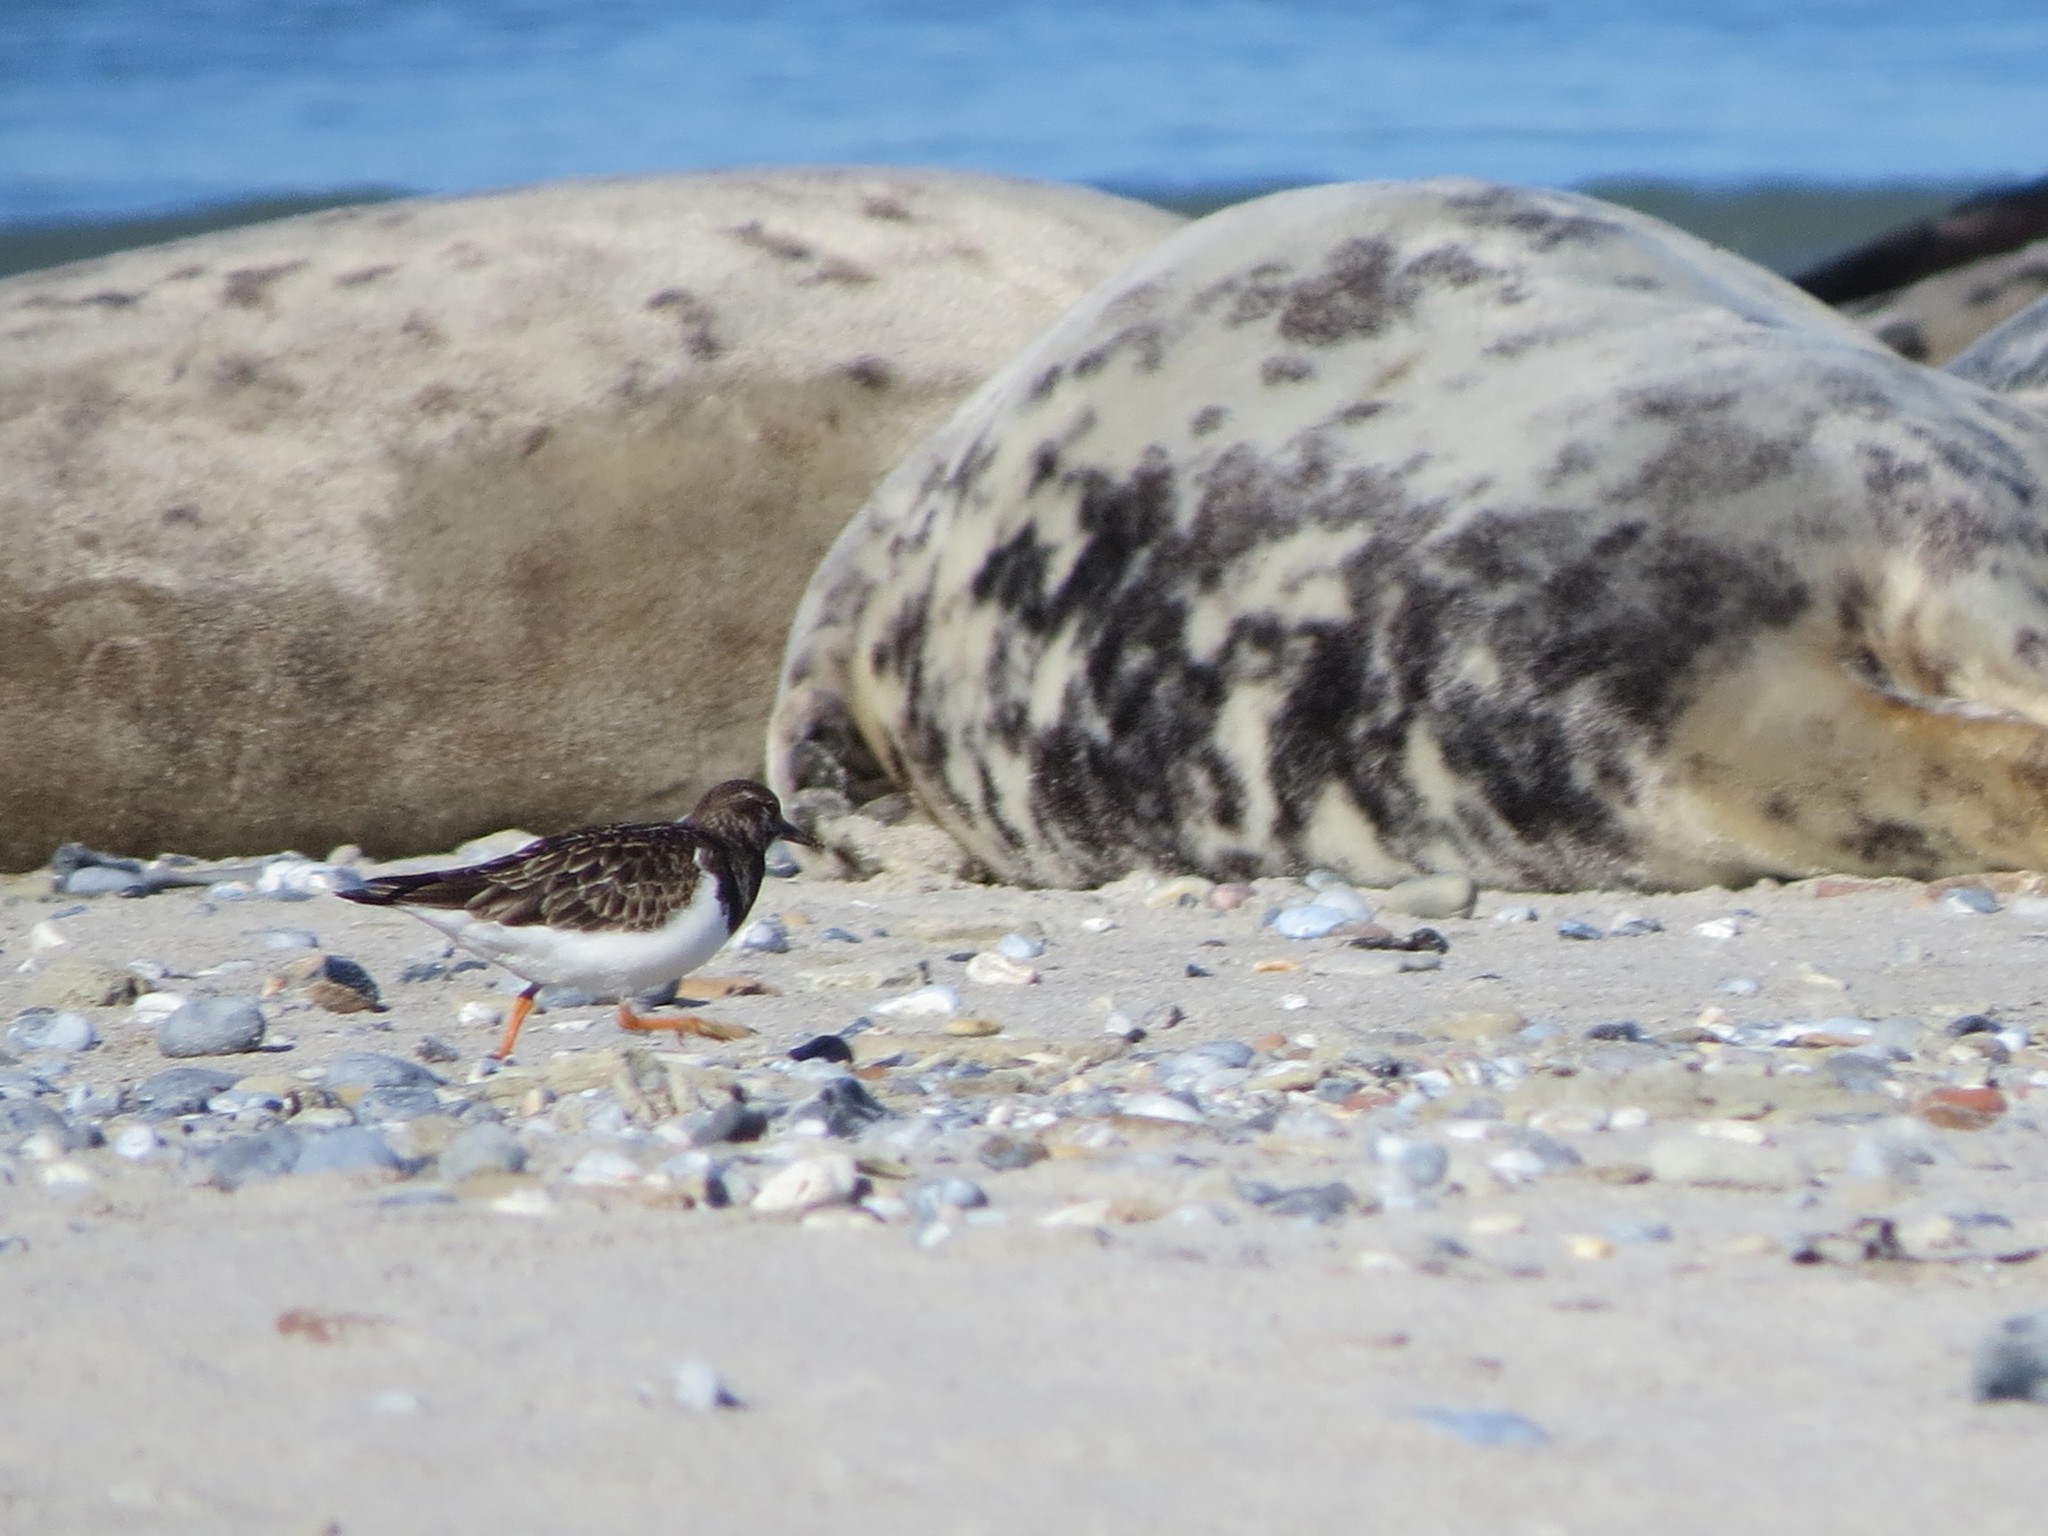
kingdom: Animalia
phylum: Chordata
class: Aves
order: Charadriiformes
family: Scolopacidae
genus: Arenaria
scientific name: Arenaria interpres
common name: Ruddy turnstone
